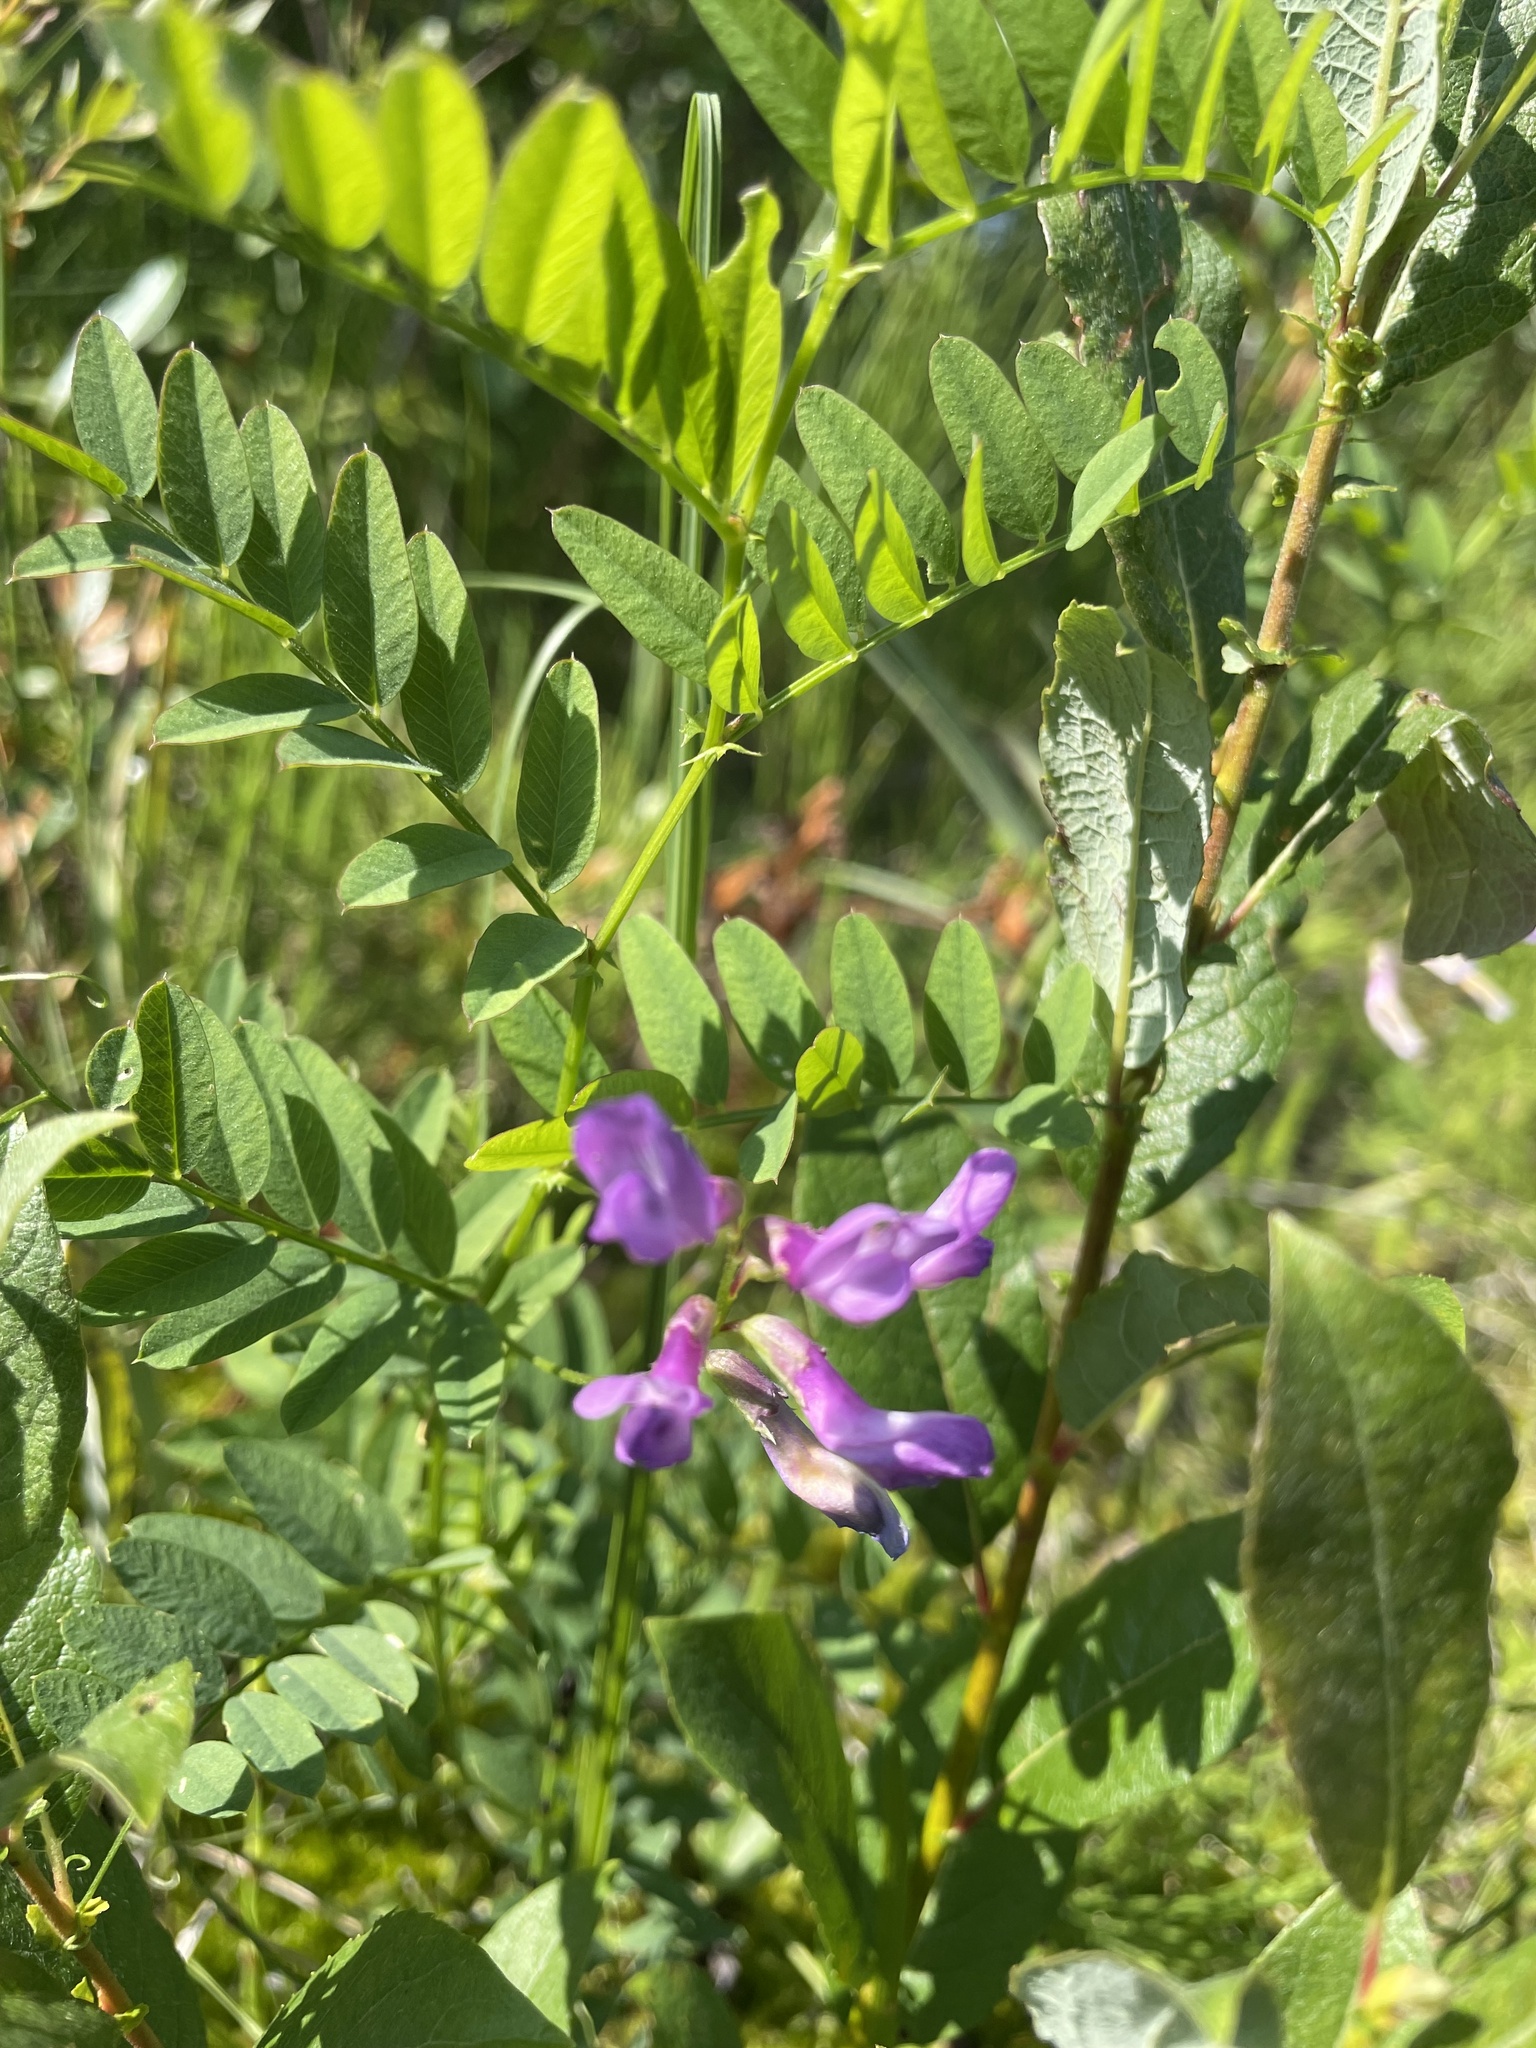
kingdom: Plantae
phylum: Tracheophyta
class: Magnoliopsida
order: Fabales
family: Fabaceae
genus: Vicia
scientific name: Vicia americana
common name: American vetch
